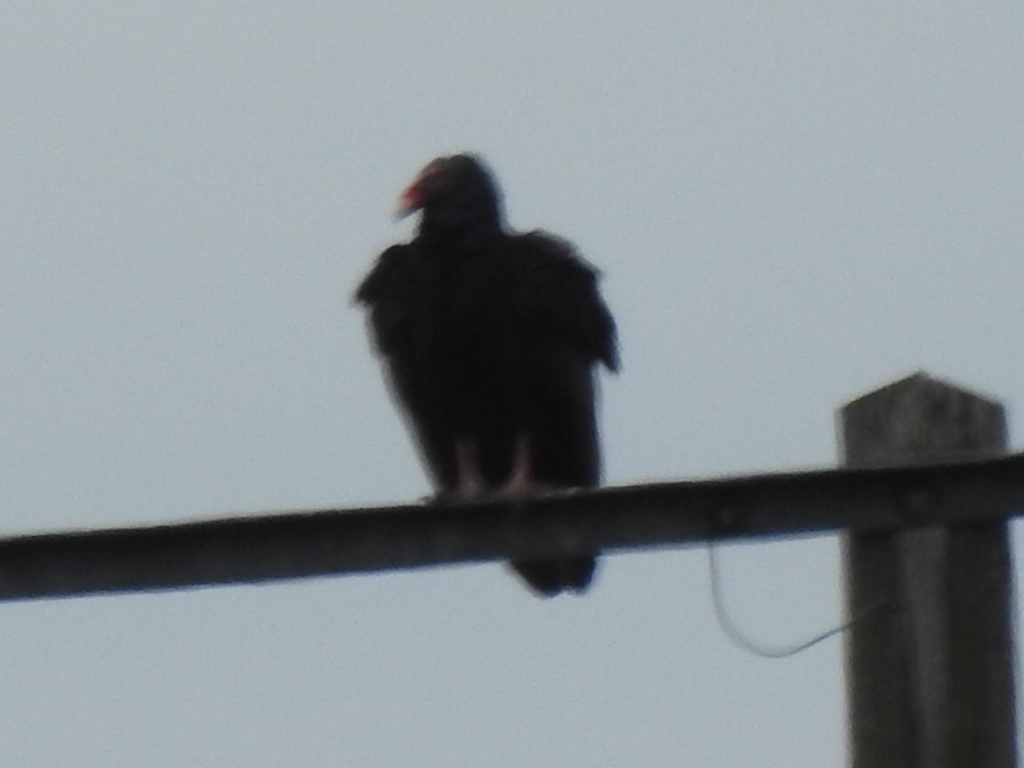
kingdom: Animalia
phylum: Chordata
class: Aves
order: Accipitriformes
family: Cathartidae
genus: Cathartes
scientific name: Cathartes aura
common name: Turkey vulture
